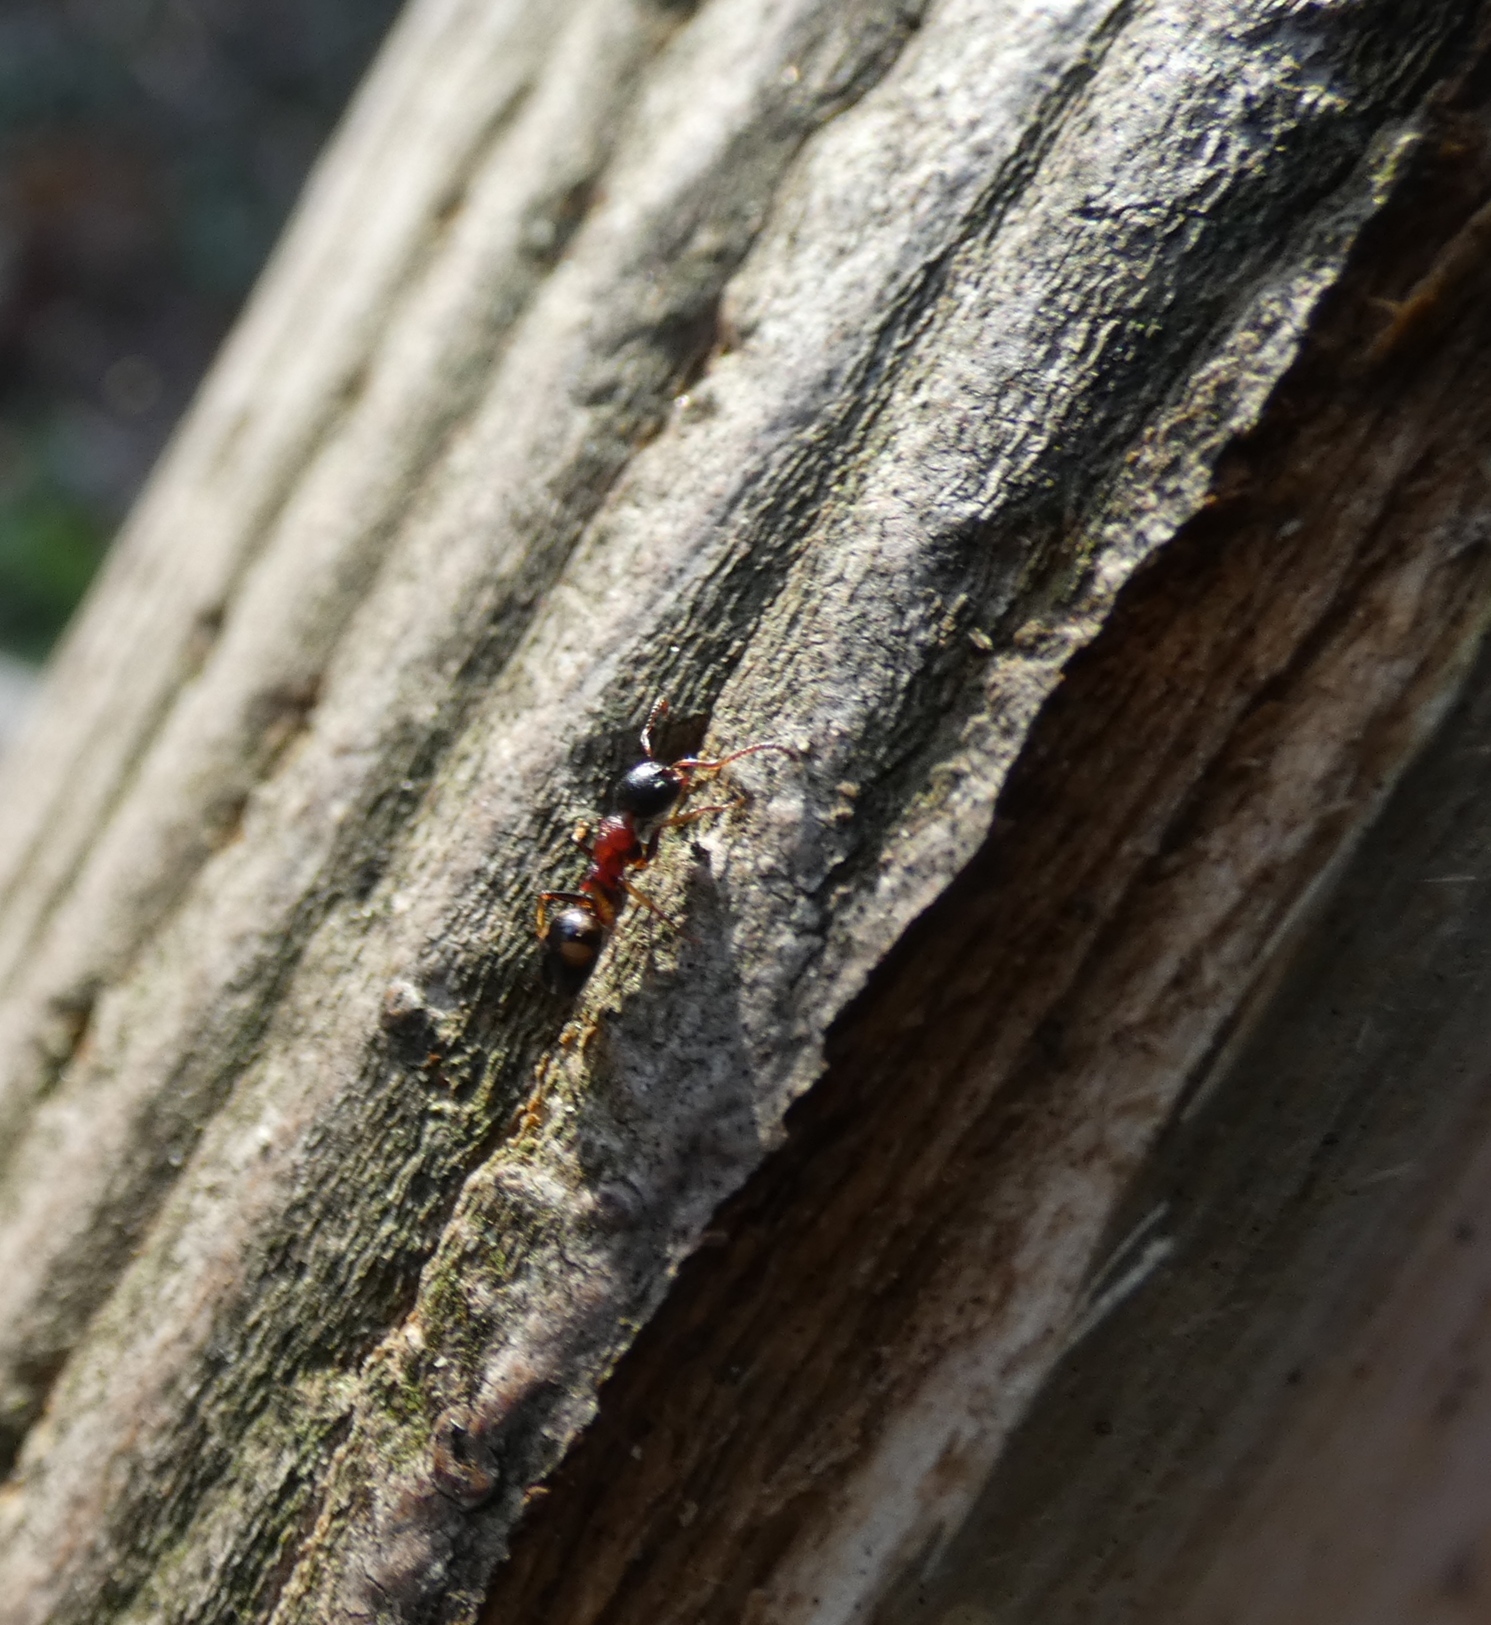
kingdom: Animalia
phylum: Arthropoda
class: Insecta
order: Hymenoptera
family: Formicidae
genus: Dolichoderus
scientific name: Dolichoderus quadripunctatus
